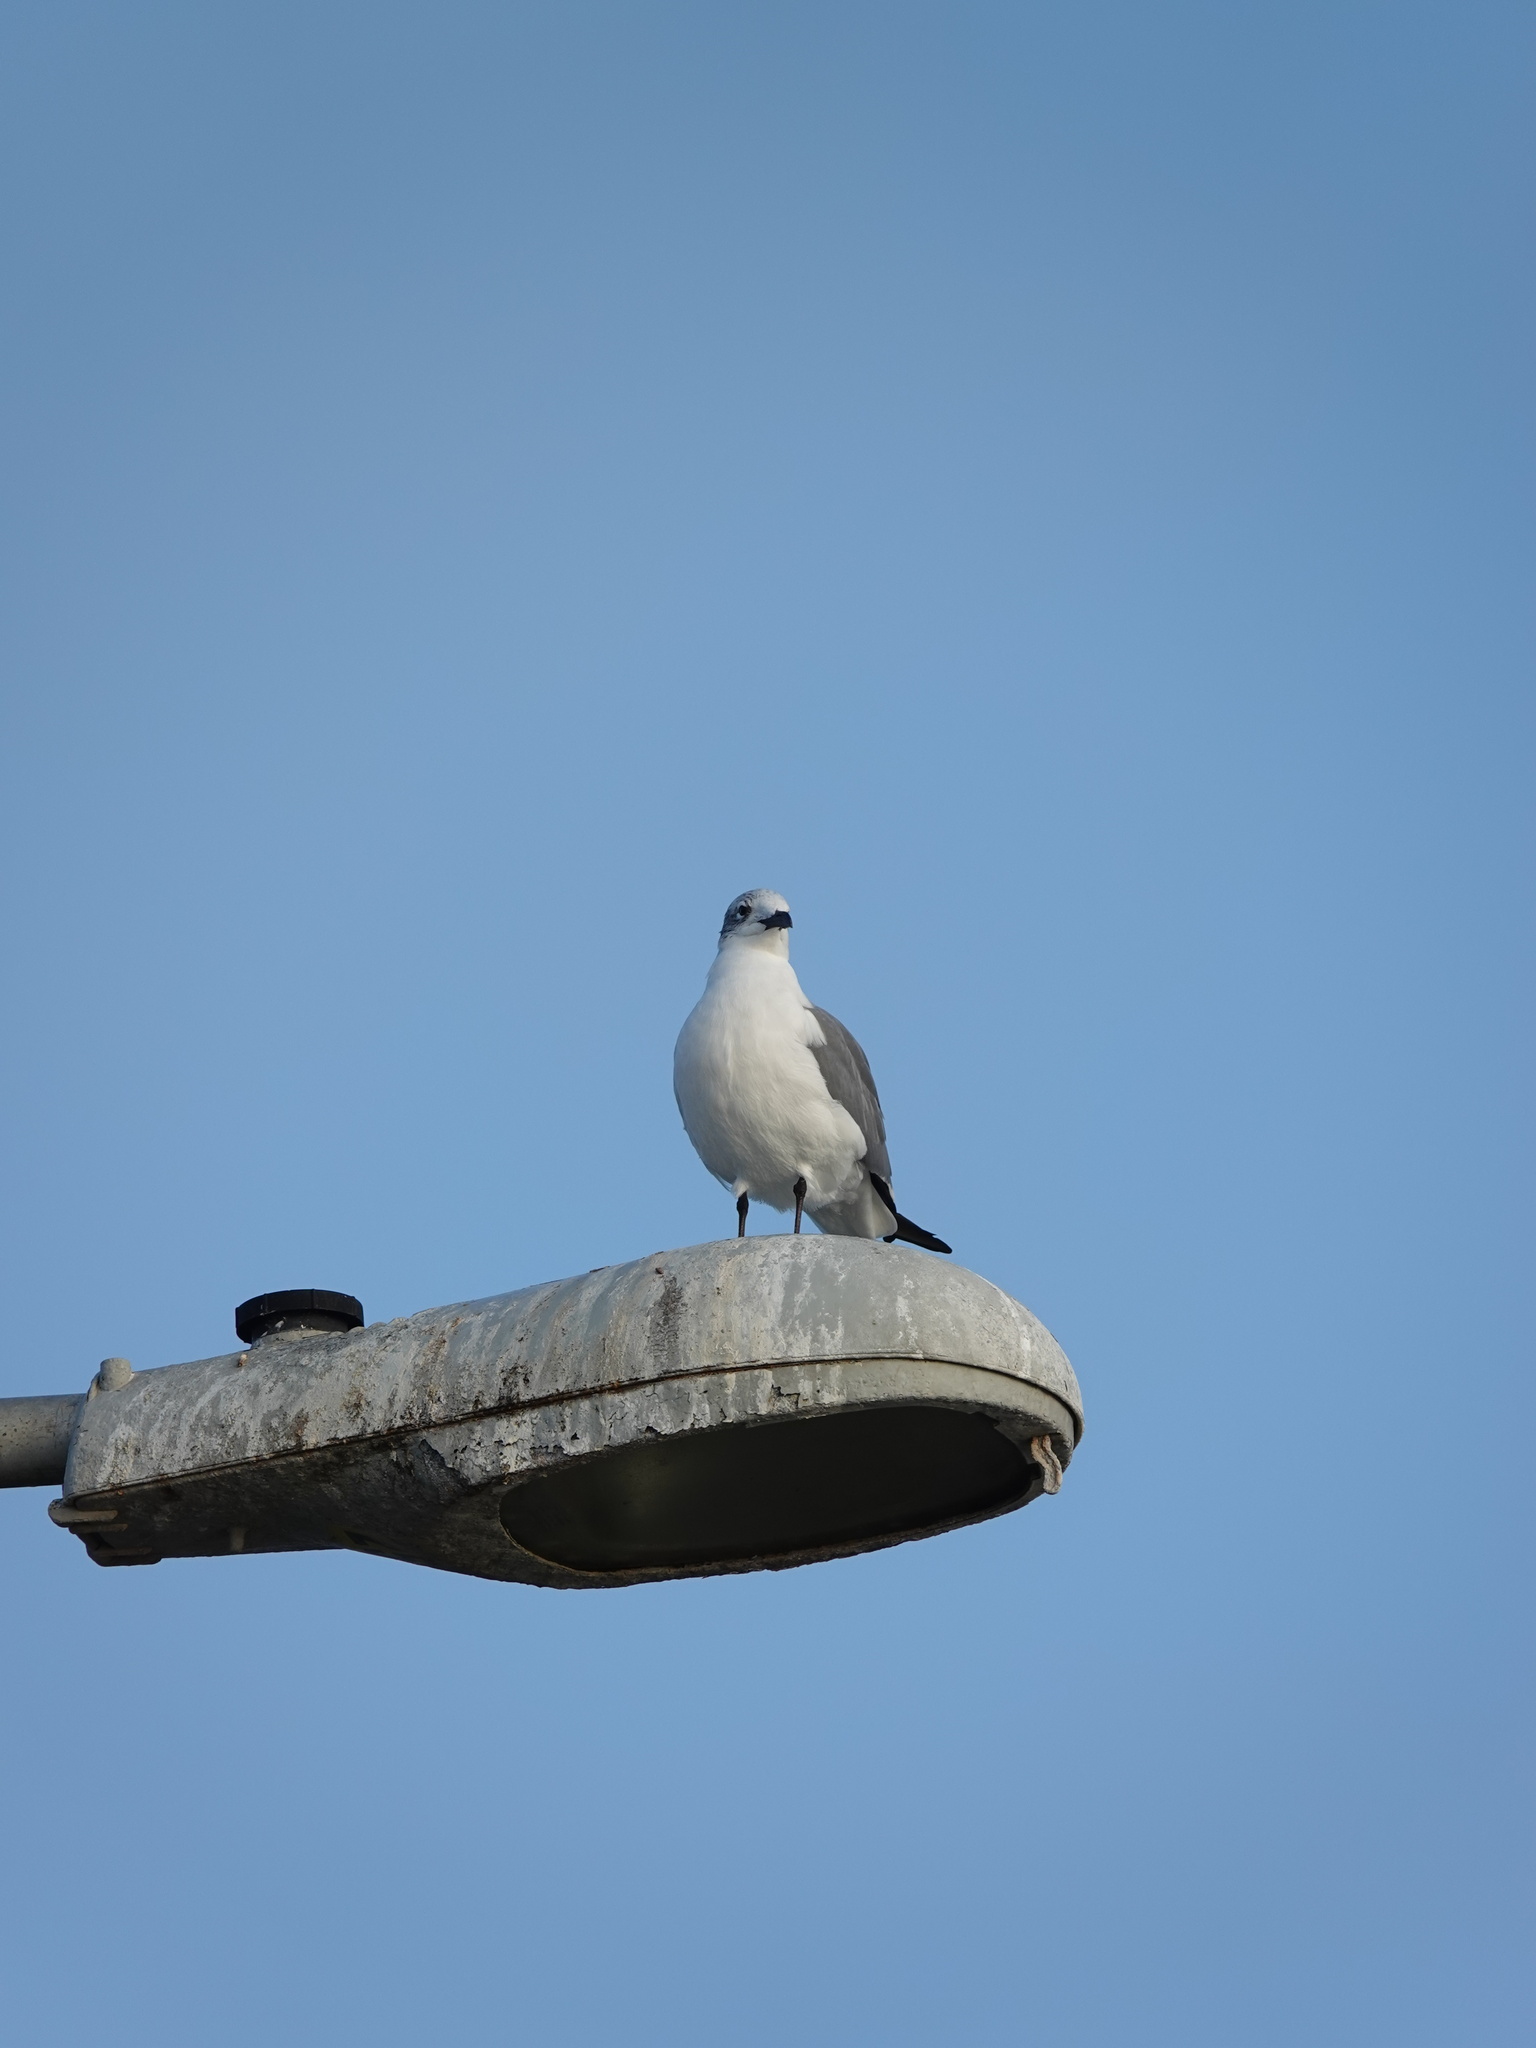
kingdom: Animalia
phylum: Chordata
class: Aves
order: Charadriiformes
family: Laridae
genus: Leucophaeus
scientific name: Leucophaeus atricilla
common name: Laughing gull
